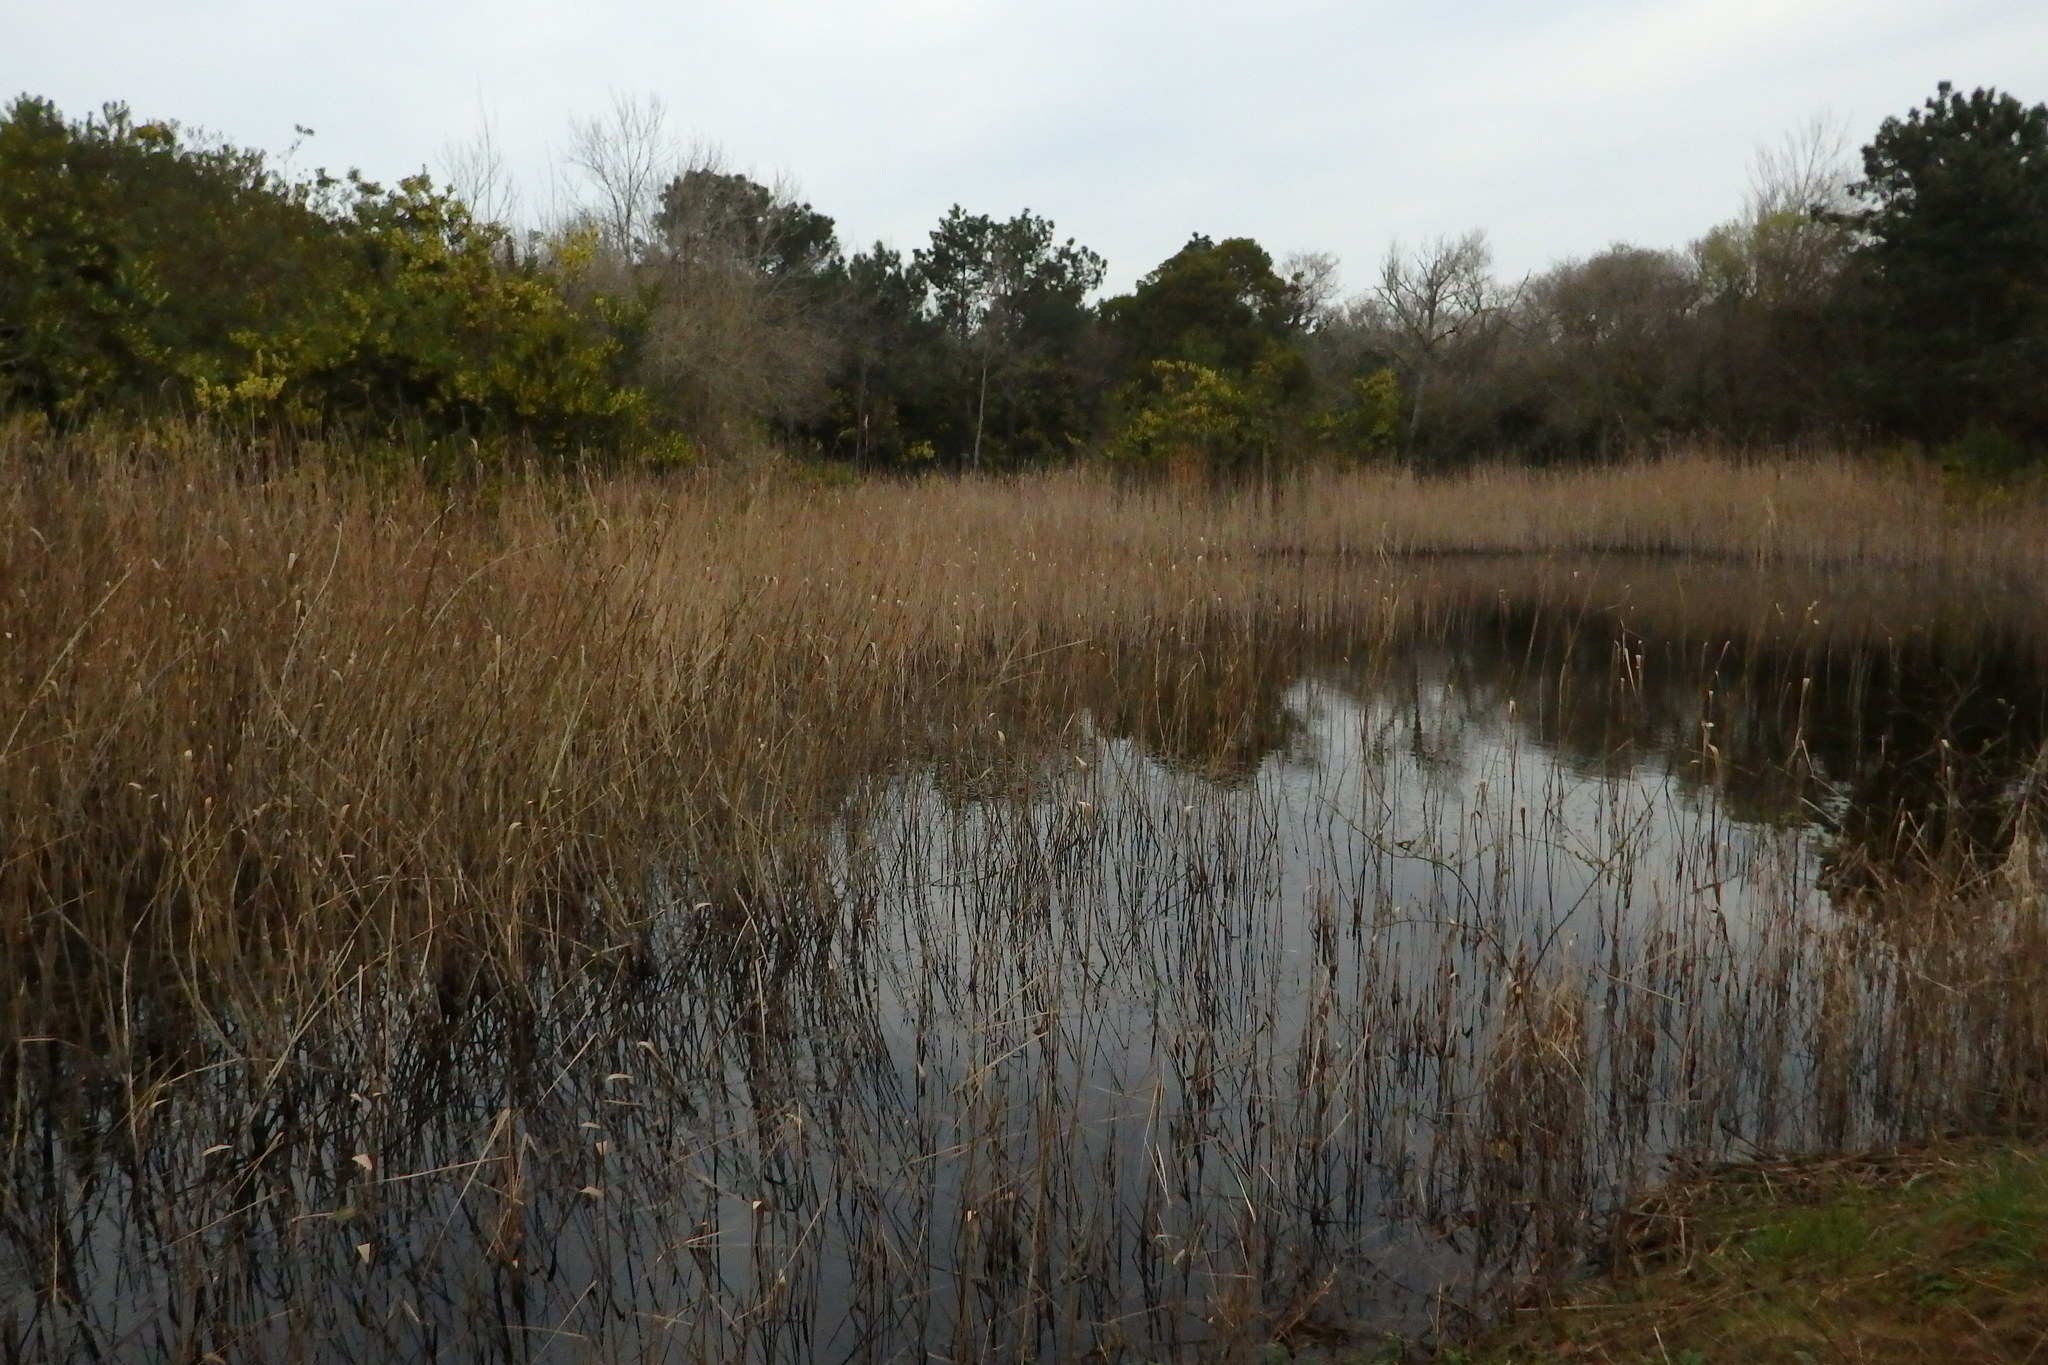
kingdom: Plantae
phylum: Tracheophyta
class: Liliopsida
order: Poales
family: Poaceae
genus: Phragmites
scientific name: Phragmites australis
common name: Common reed
